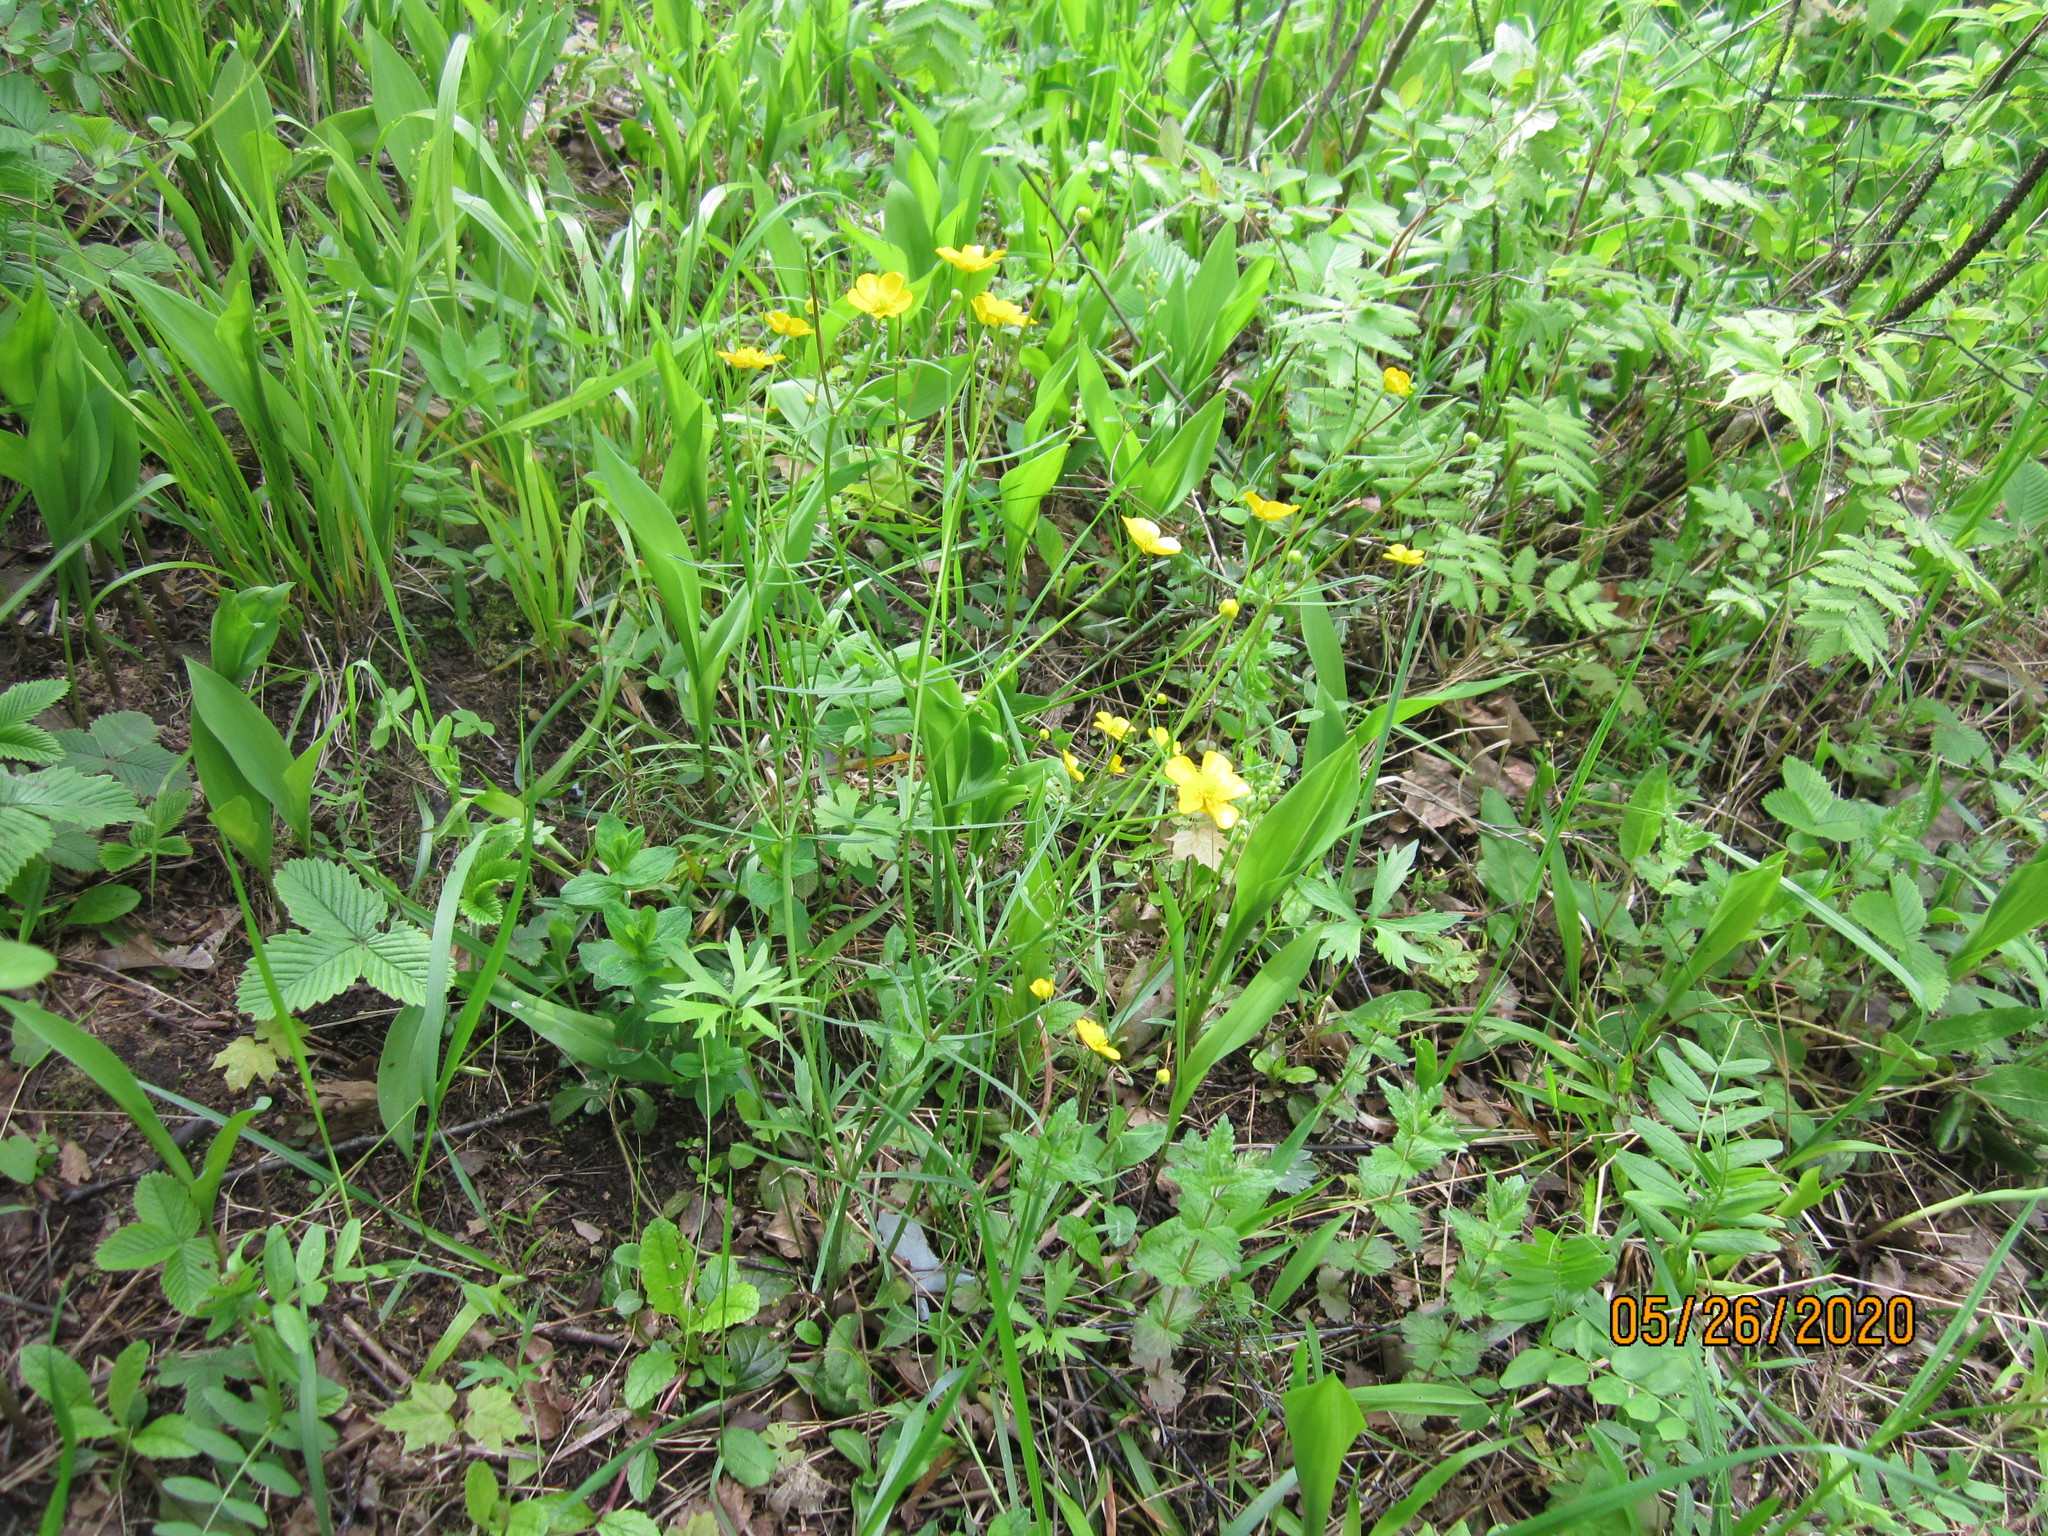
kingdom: Plantae
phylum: Tracheophyta
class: Magnoliopsida
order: Ranunculales
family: Ranunculaceae
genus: Ranunculus
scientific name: Ranunculus auricomus
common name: Goldilocks buttercup
